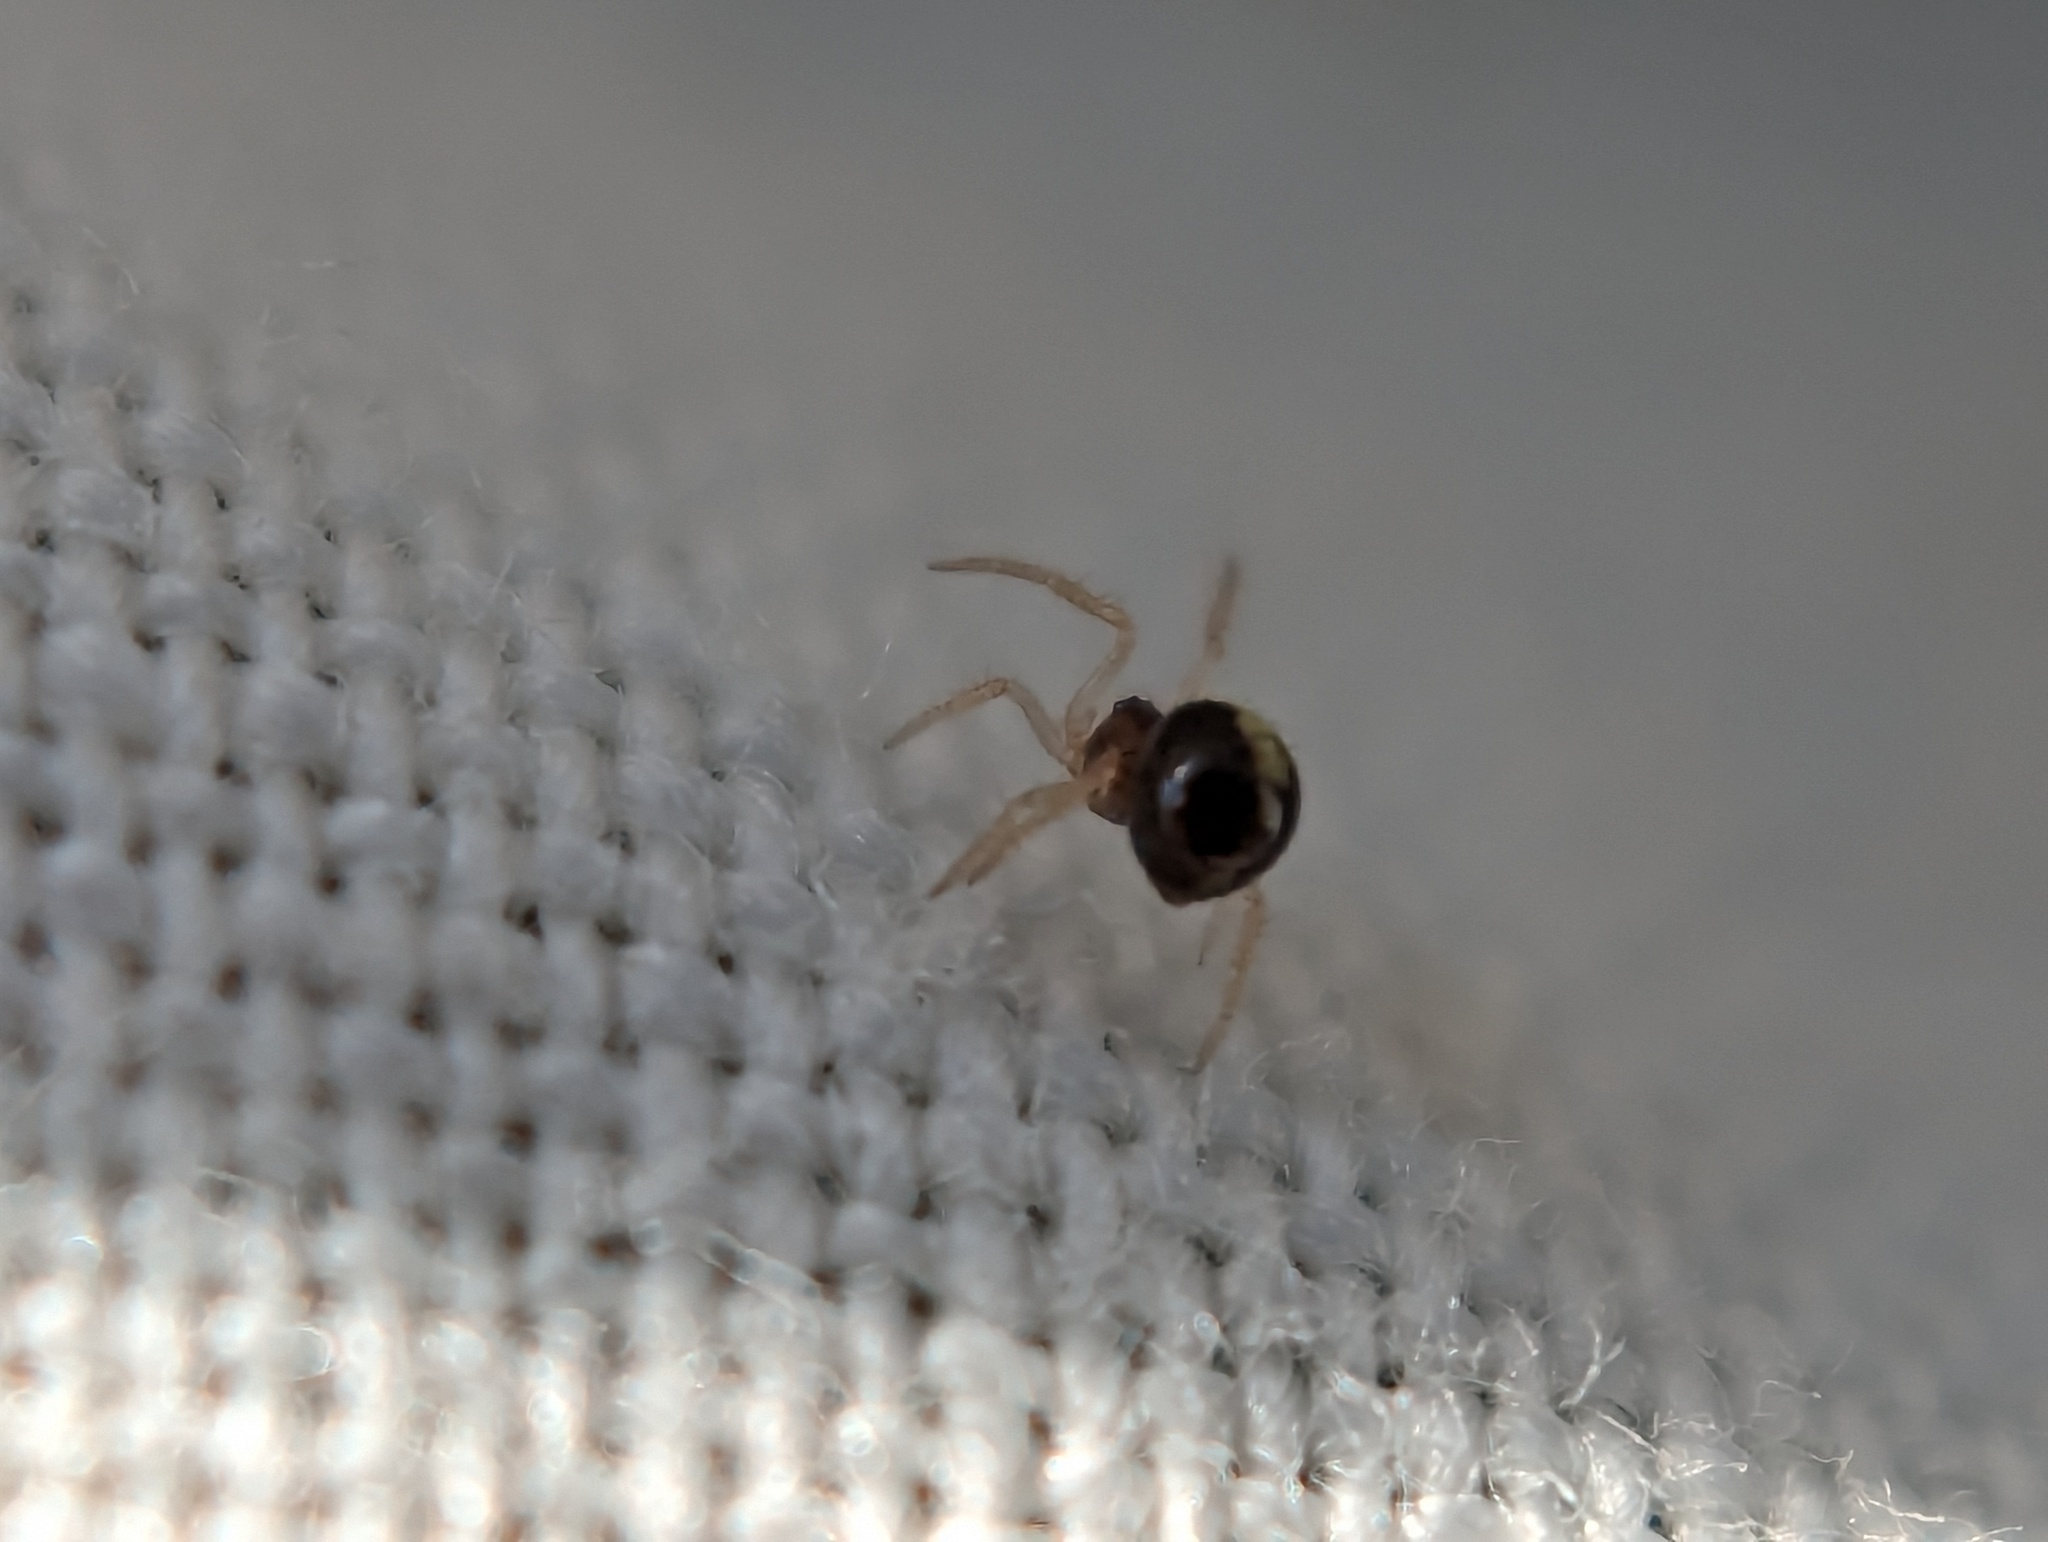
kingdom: Animalia
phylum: Arthropoda
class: Arachnida
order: Araneae
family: Theridiidae
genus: Neottiura
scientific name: Neottiura bimaculata
